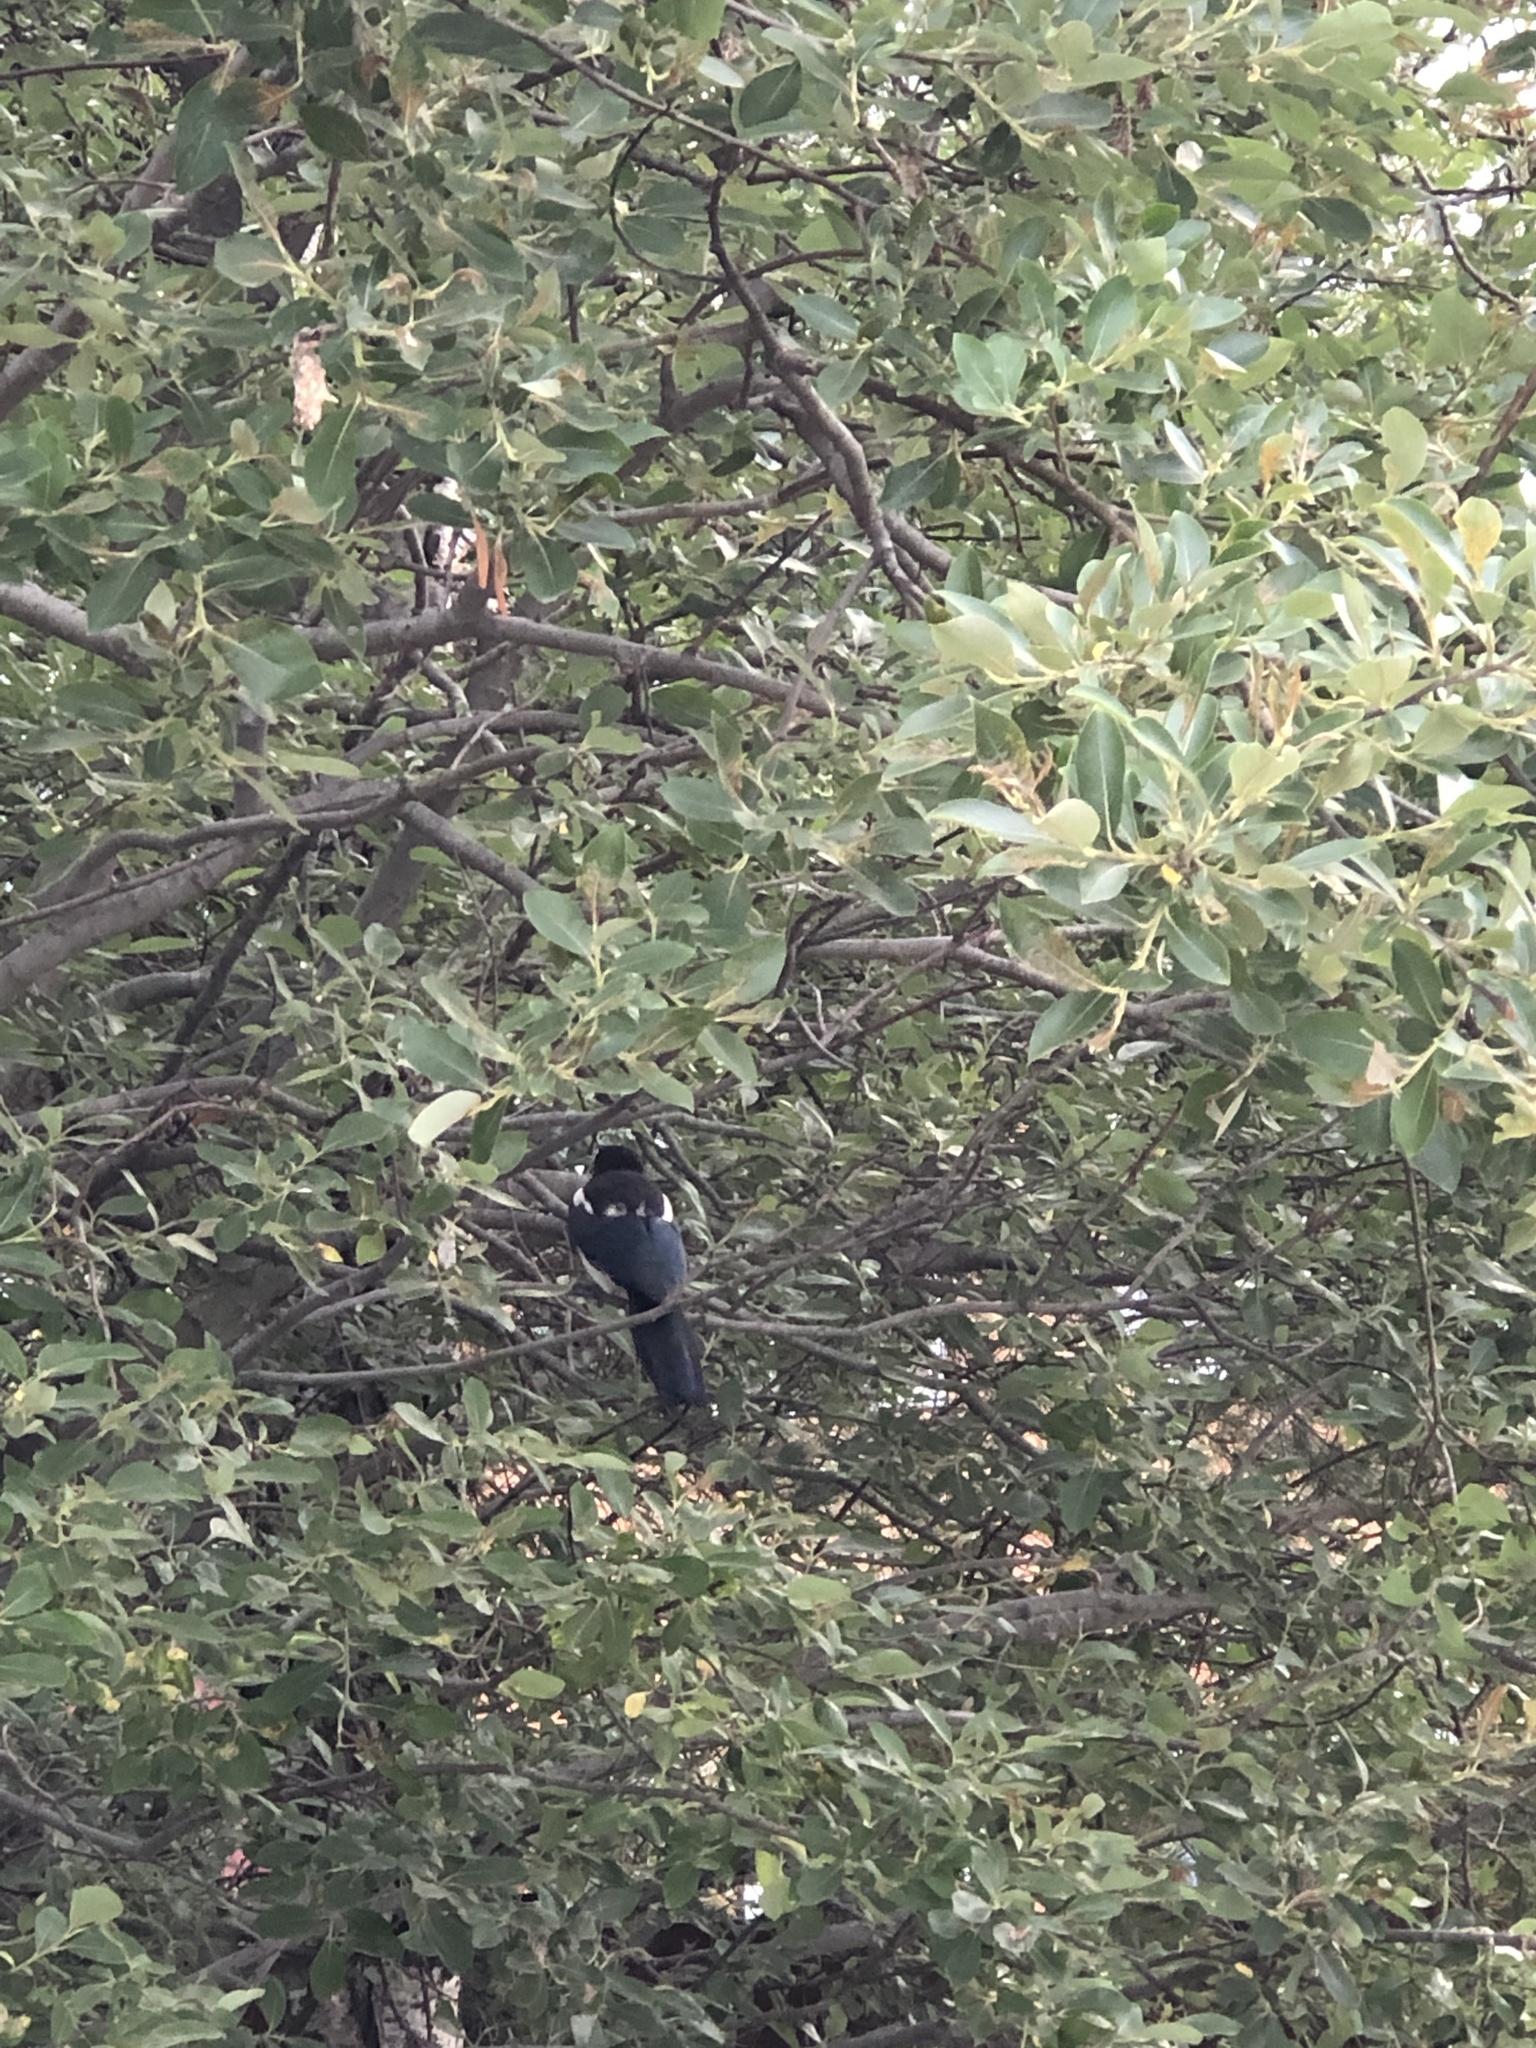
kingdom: Animalia
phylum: Chordata
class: Aves
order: Passeriformes
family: Corvidae
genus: Pica
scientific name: Pica hudsonia
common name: Black-billed magpie
